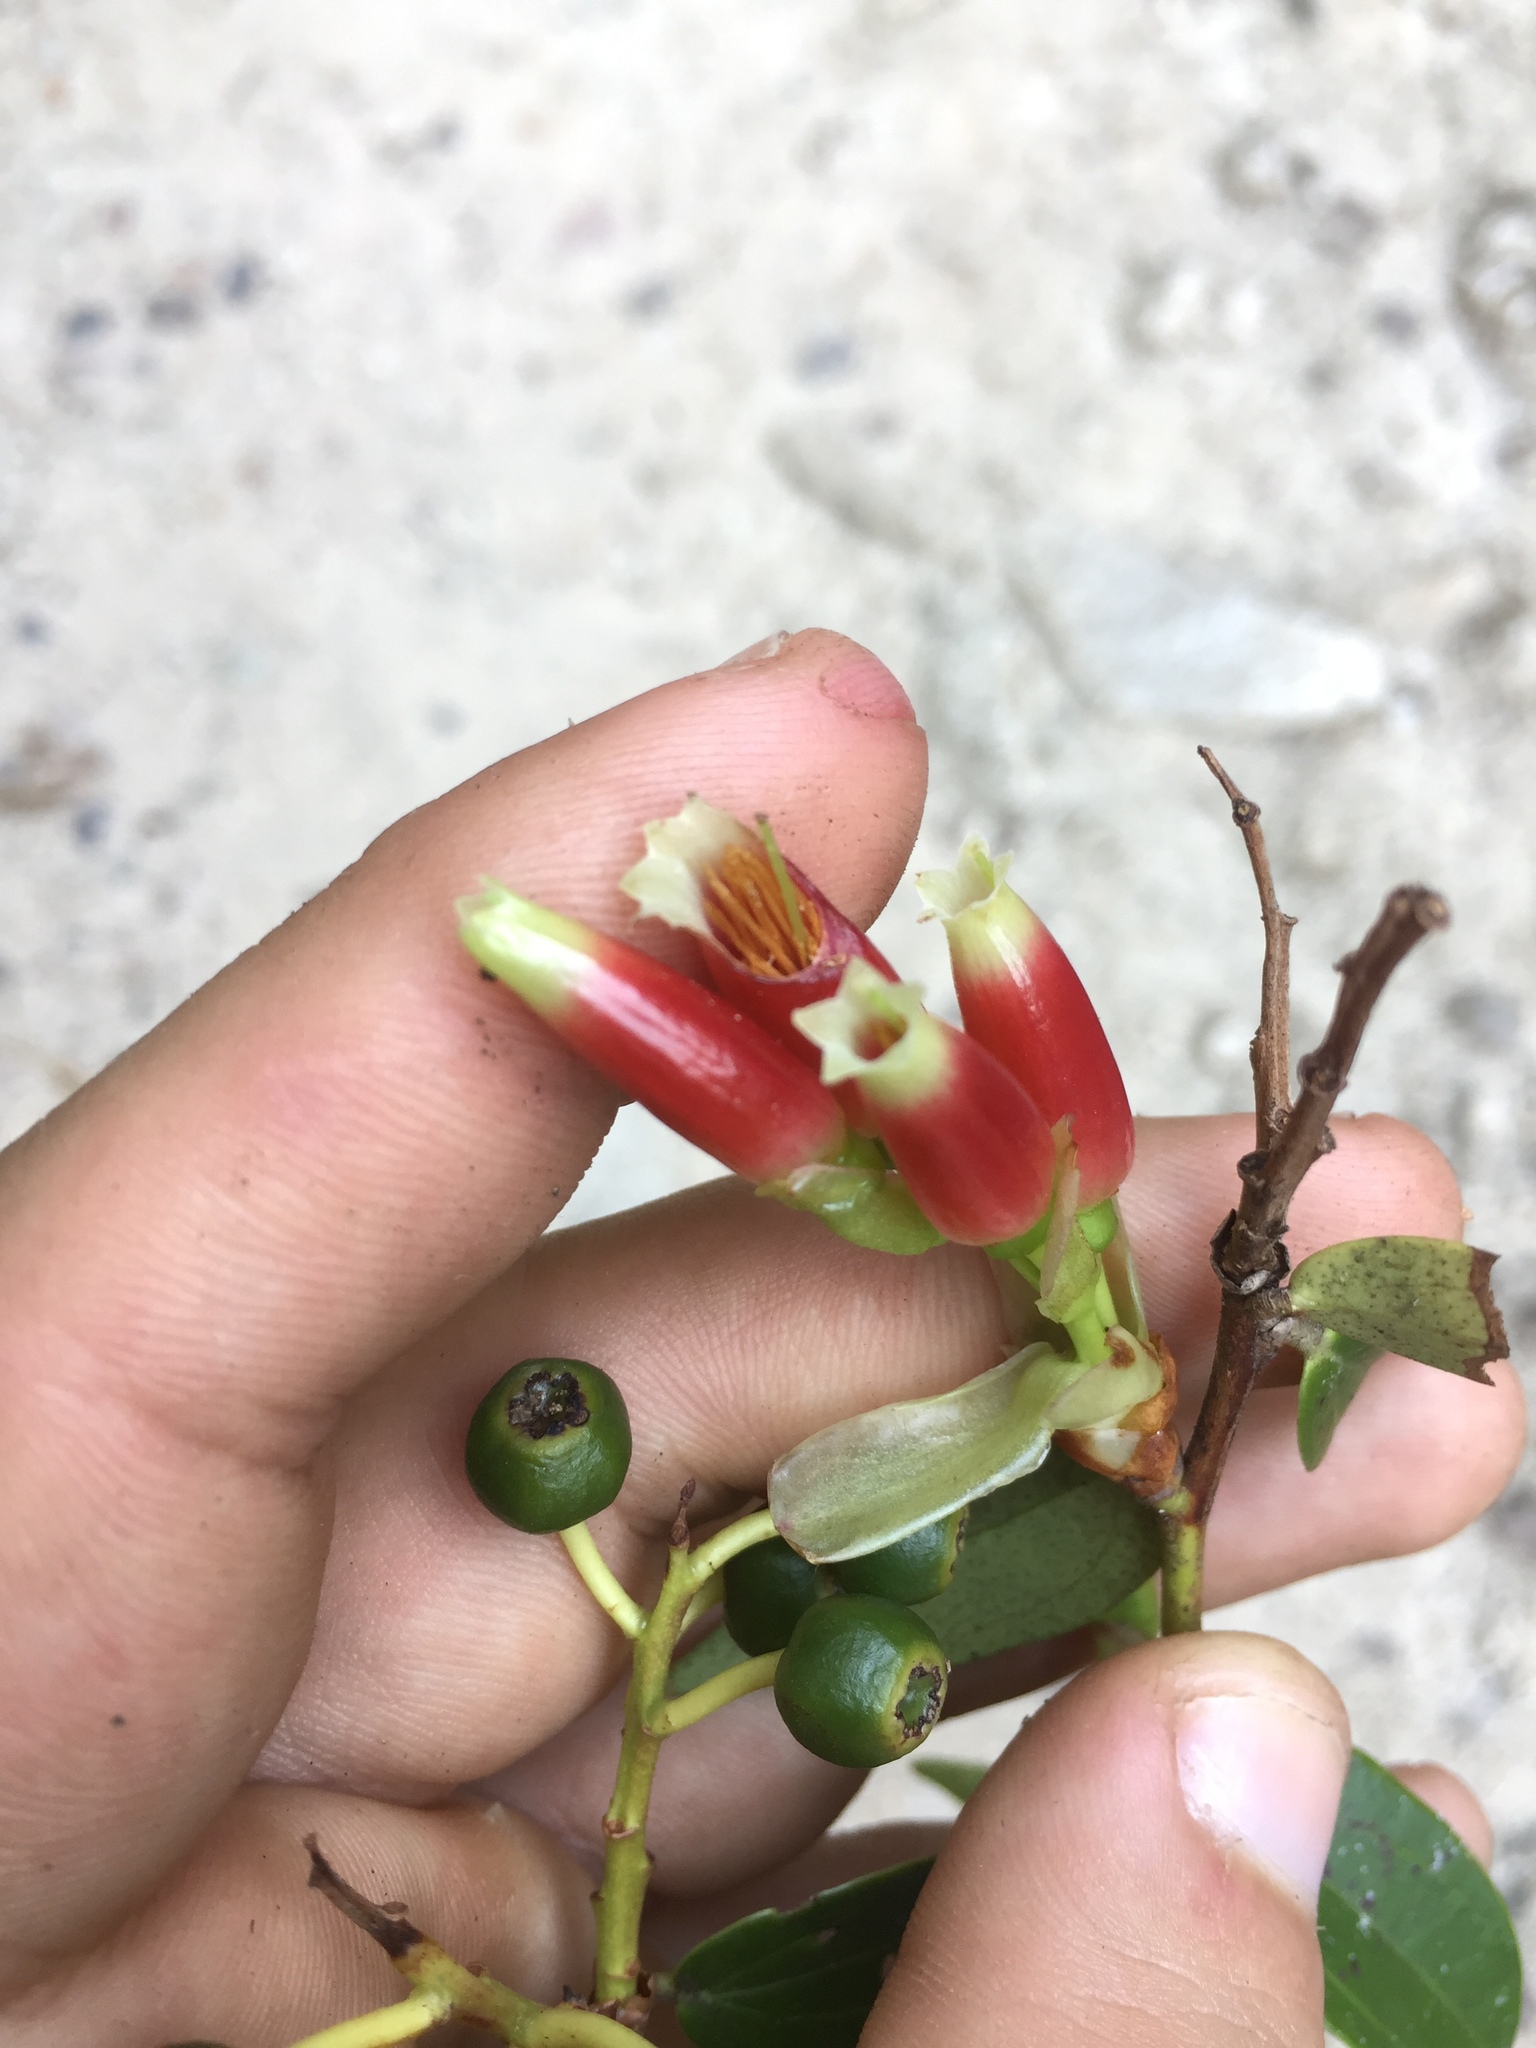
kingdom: Plantae
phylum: Tracheophyta
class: Magnoliopsida
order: Ericales
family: Ericaceae
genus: Cavendishia
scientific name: Cavendishia bracteata
